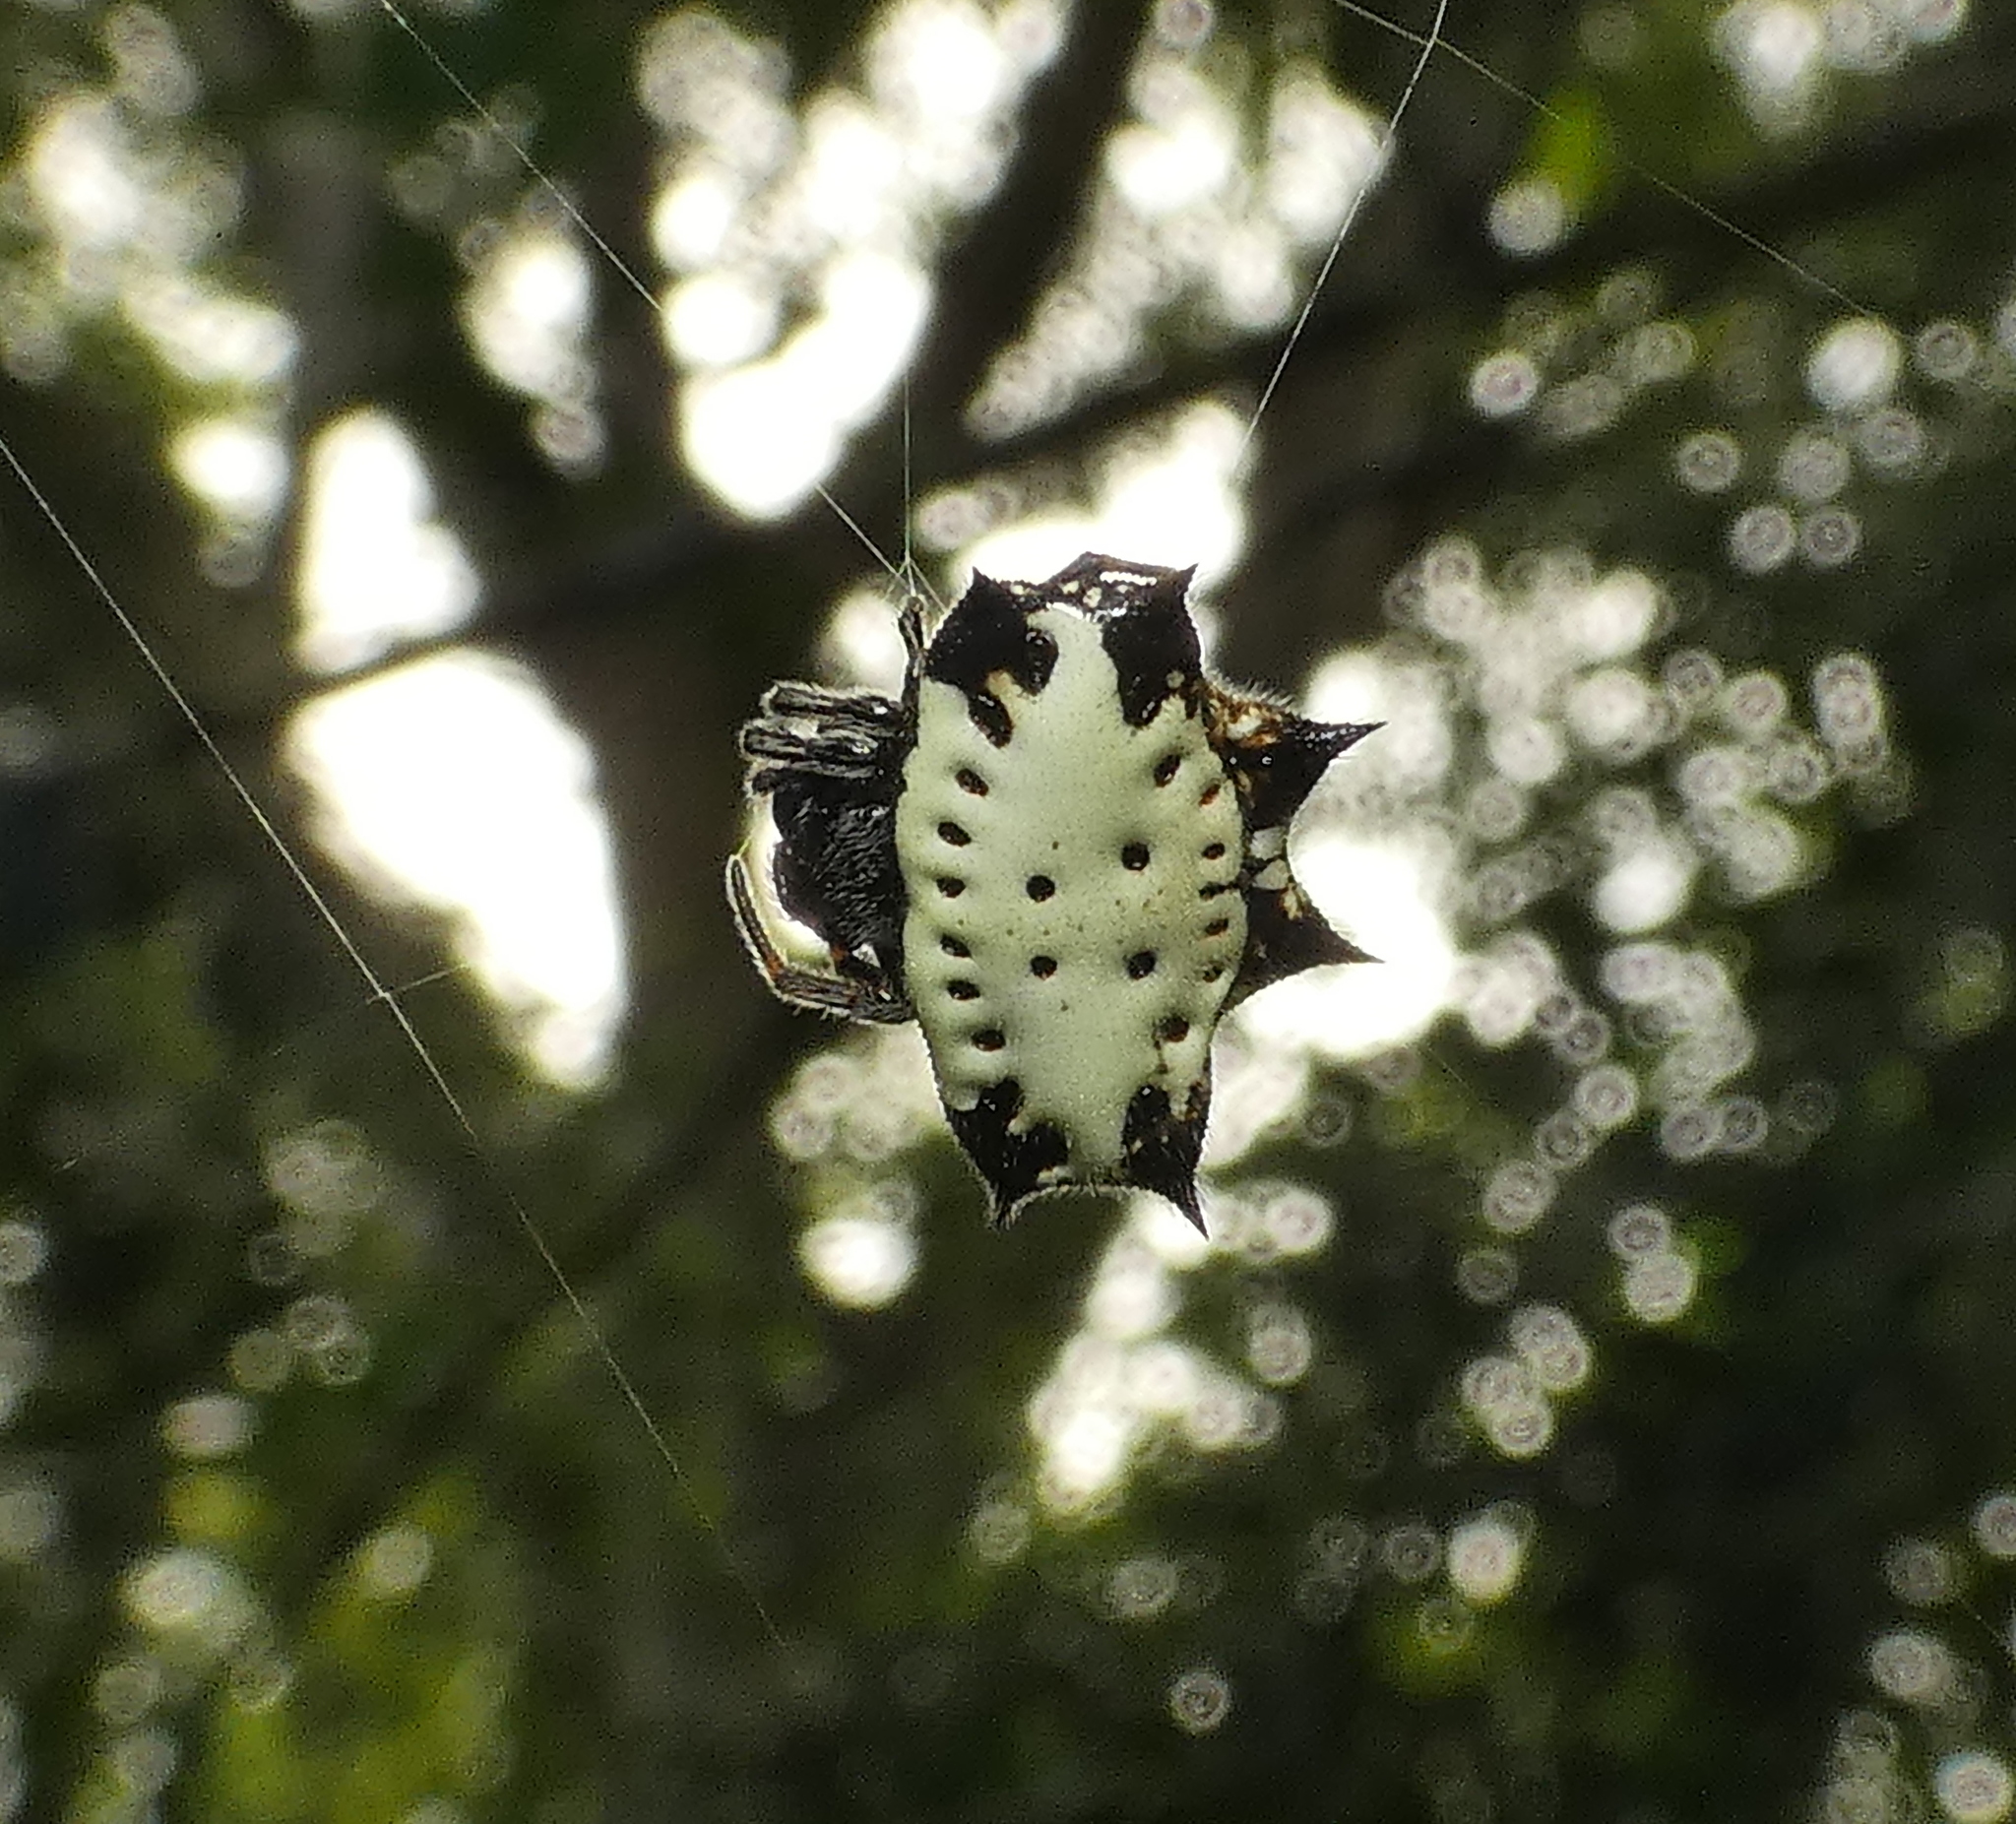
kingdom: Animalia
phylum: Arthropoda
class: Arachnida
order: Araneae
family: Araneidae
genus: Gasteracantha
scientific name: Gasteracantha cancriformis
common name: Orb weavers
